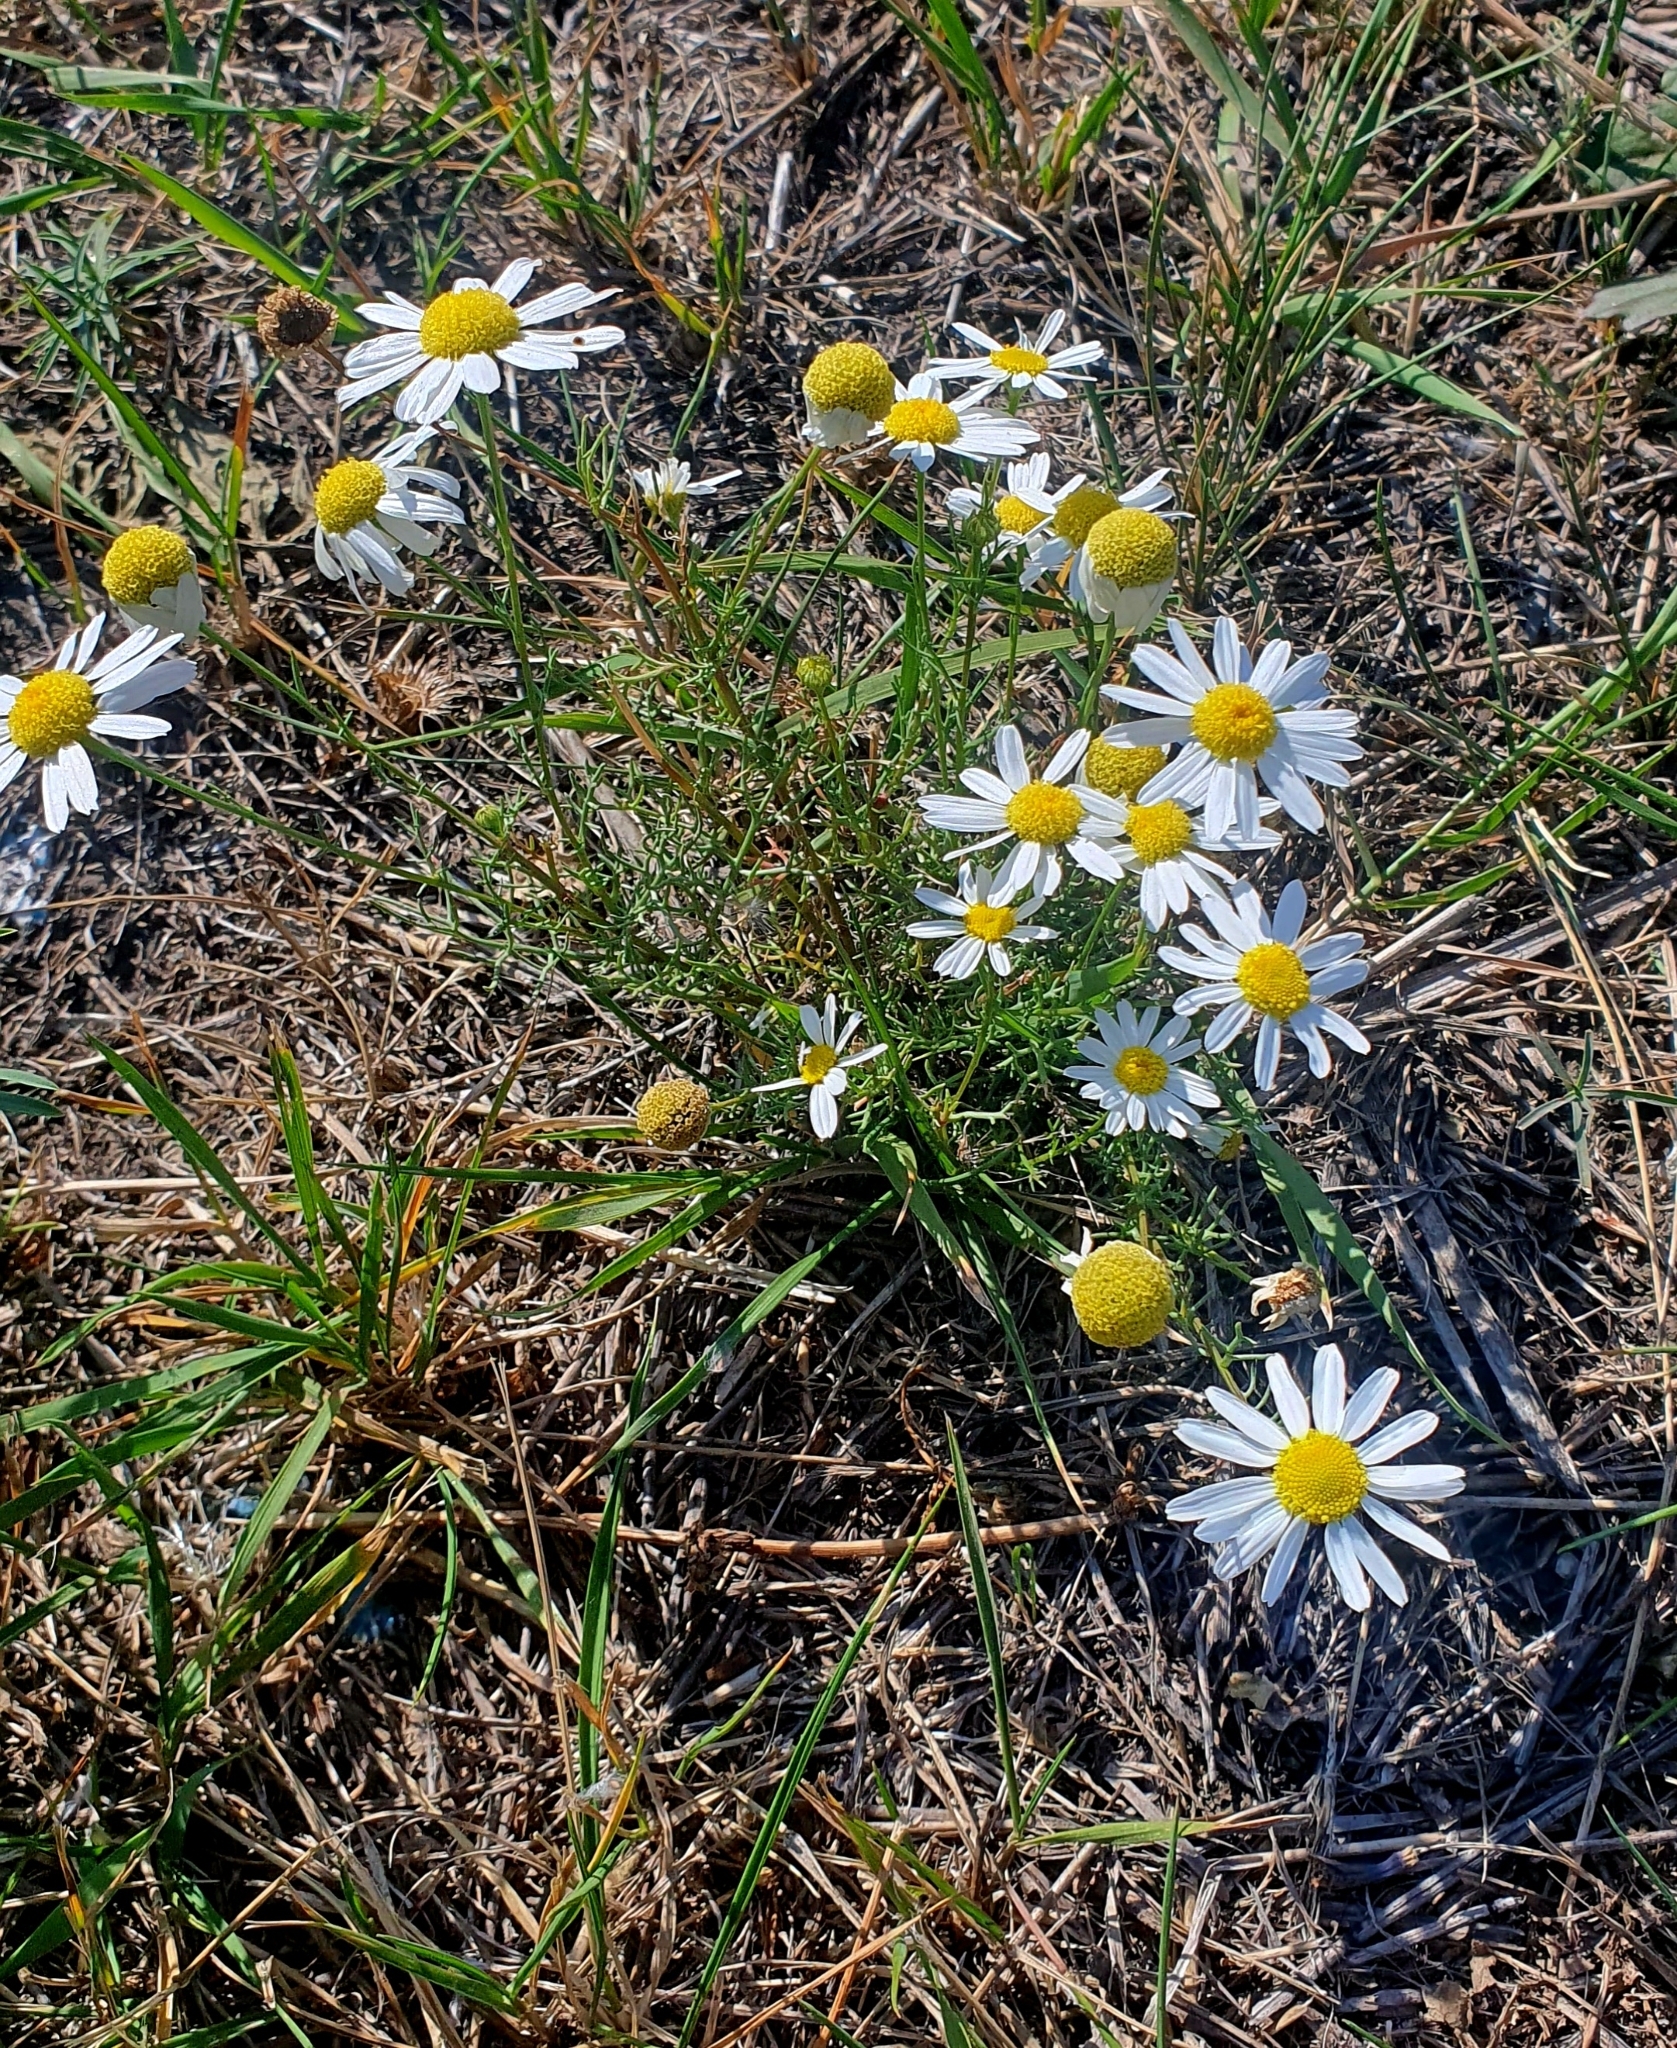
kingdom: Plantae
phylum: Tracheophyta
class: Magnoliopsida
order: Asterales
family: Asteraceae
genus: Tripleurospermum
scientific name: Tripleurospermum inodorum
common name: Scentless mayweed
